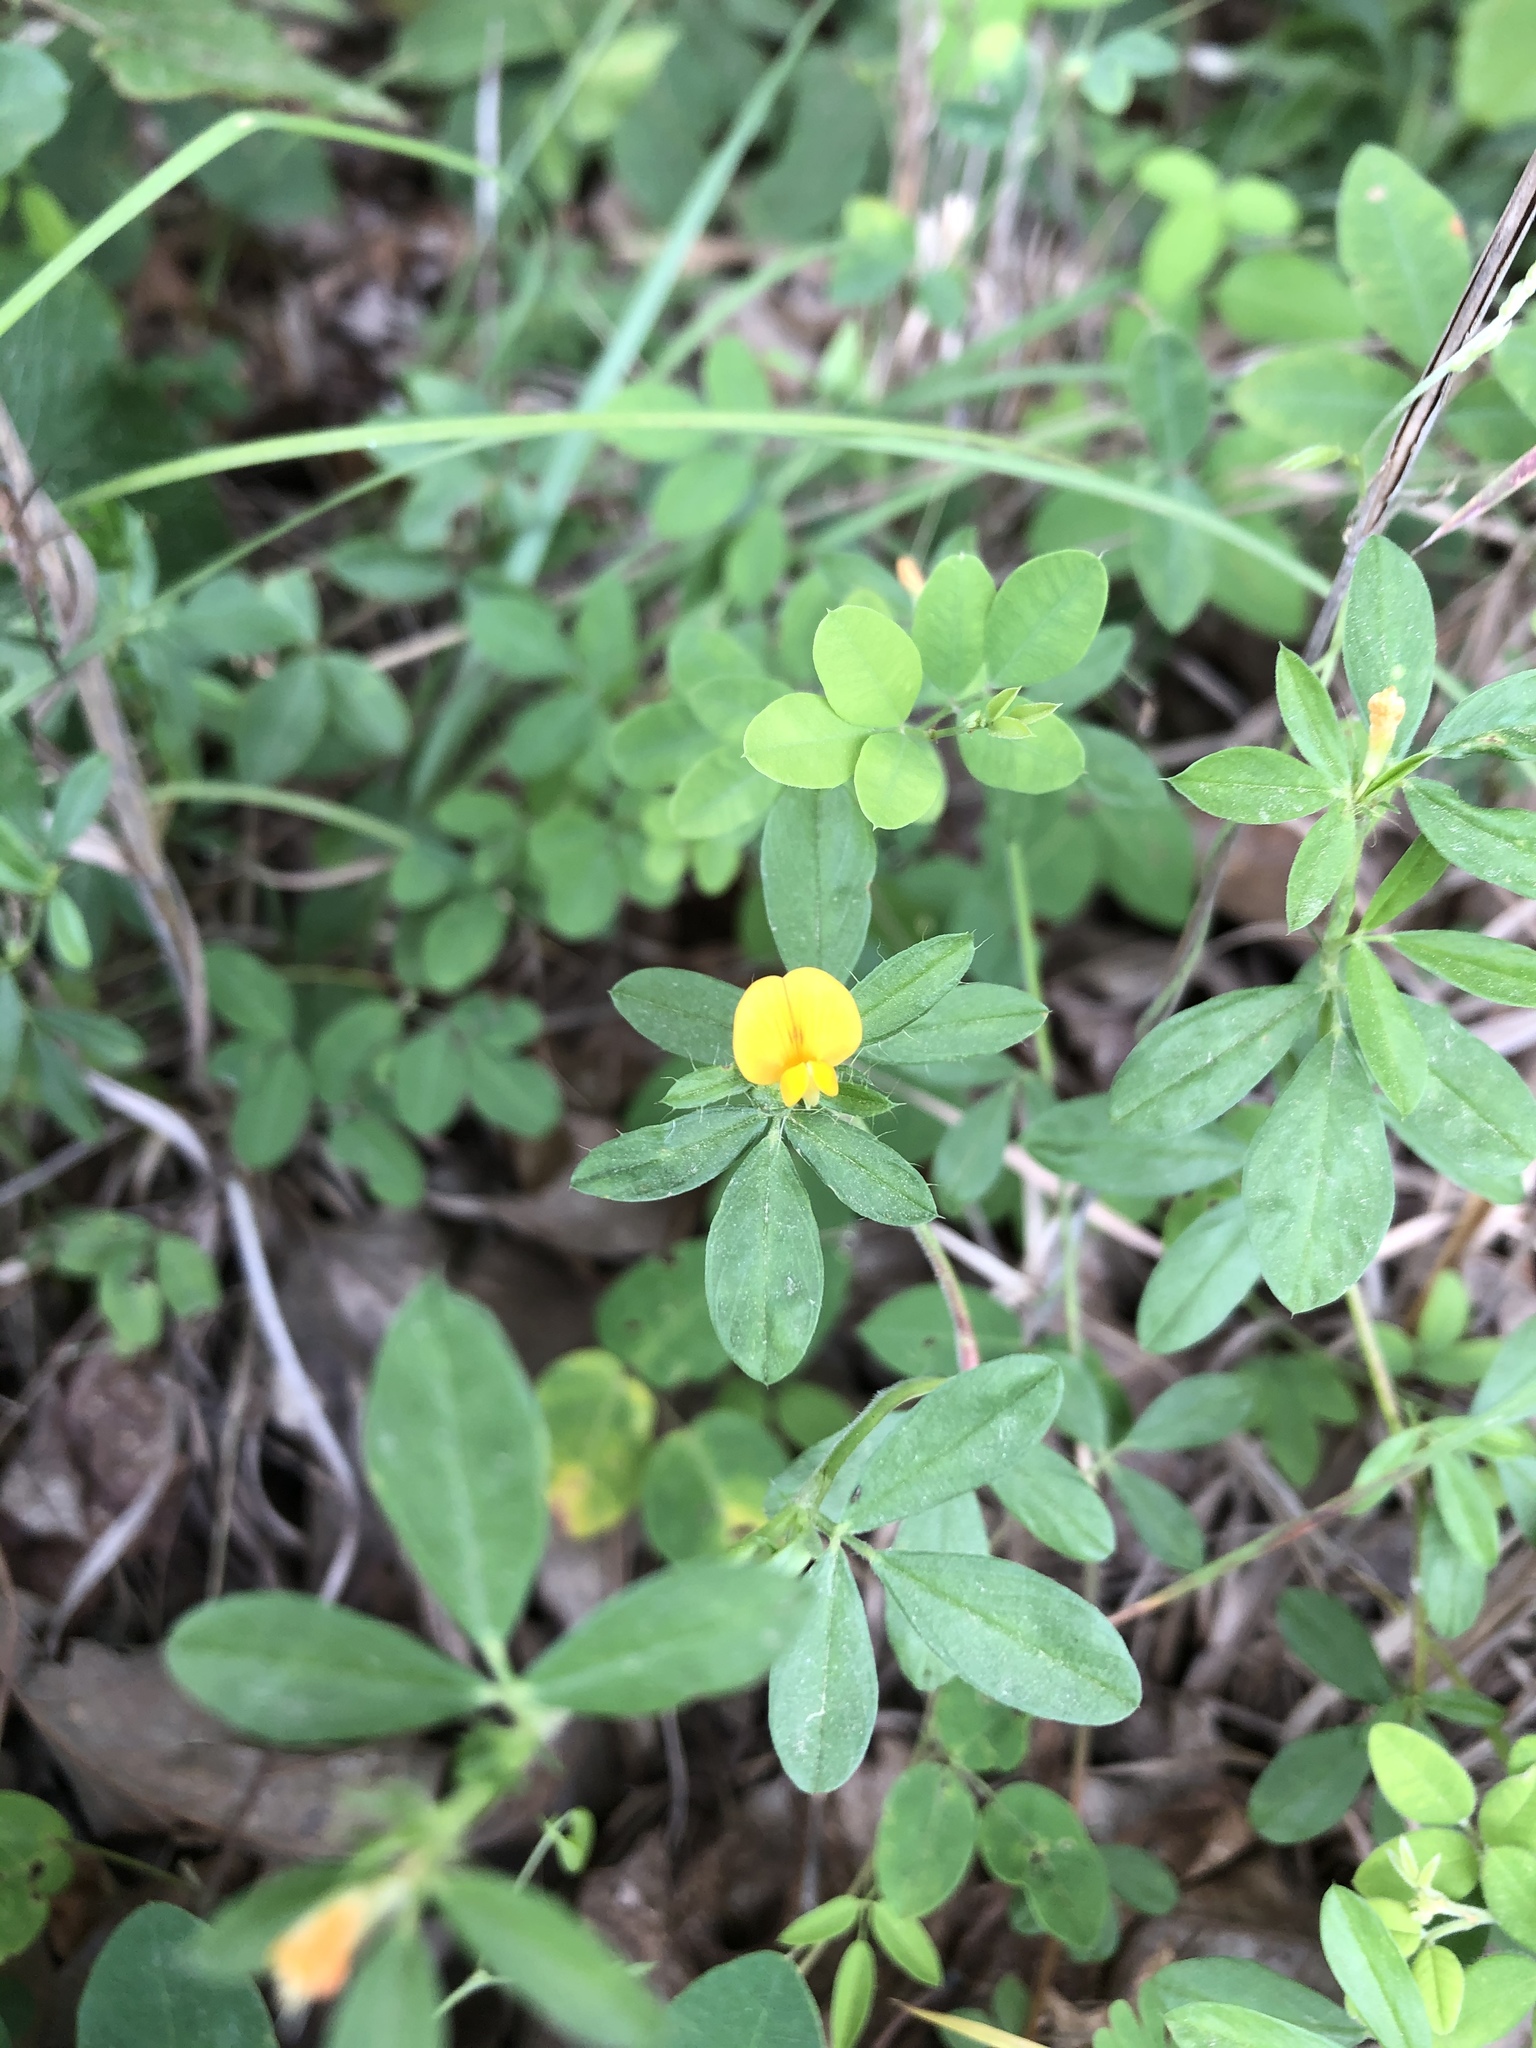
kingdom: Plantae
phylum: Tracheophyta
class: Magnoliopsida
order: Fabales
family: Fabaceae
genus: Stylosanthes
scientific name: Stylosanthes biflora
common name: Two-flower pencil-flower
